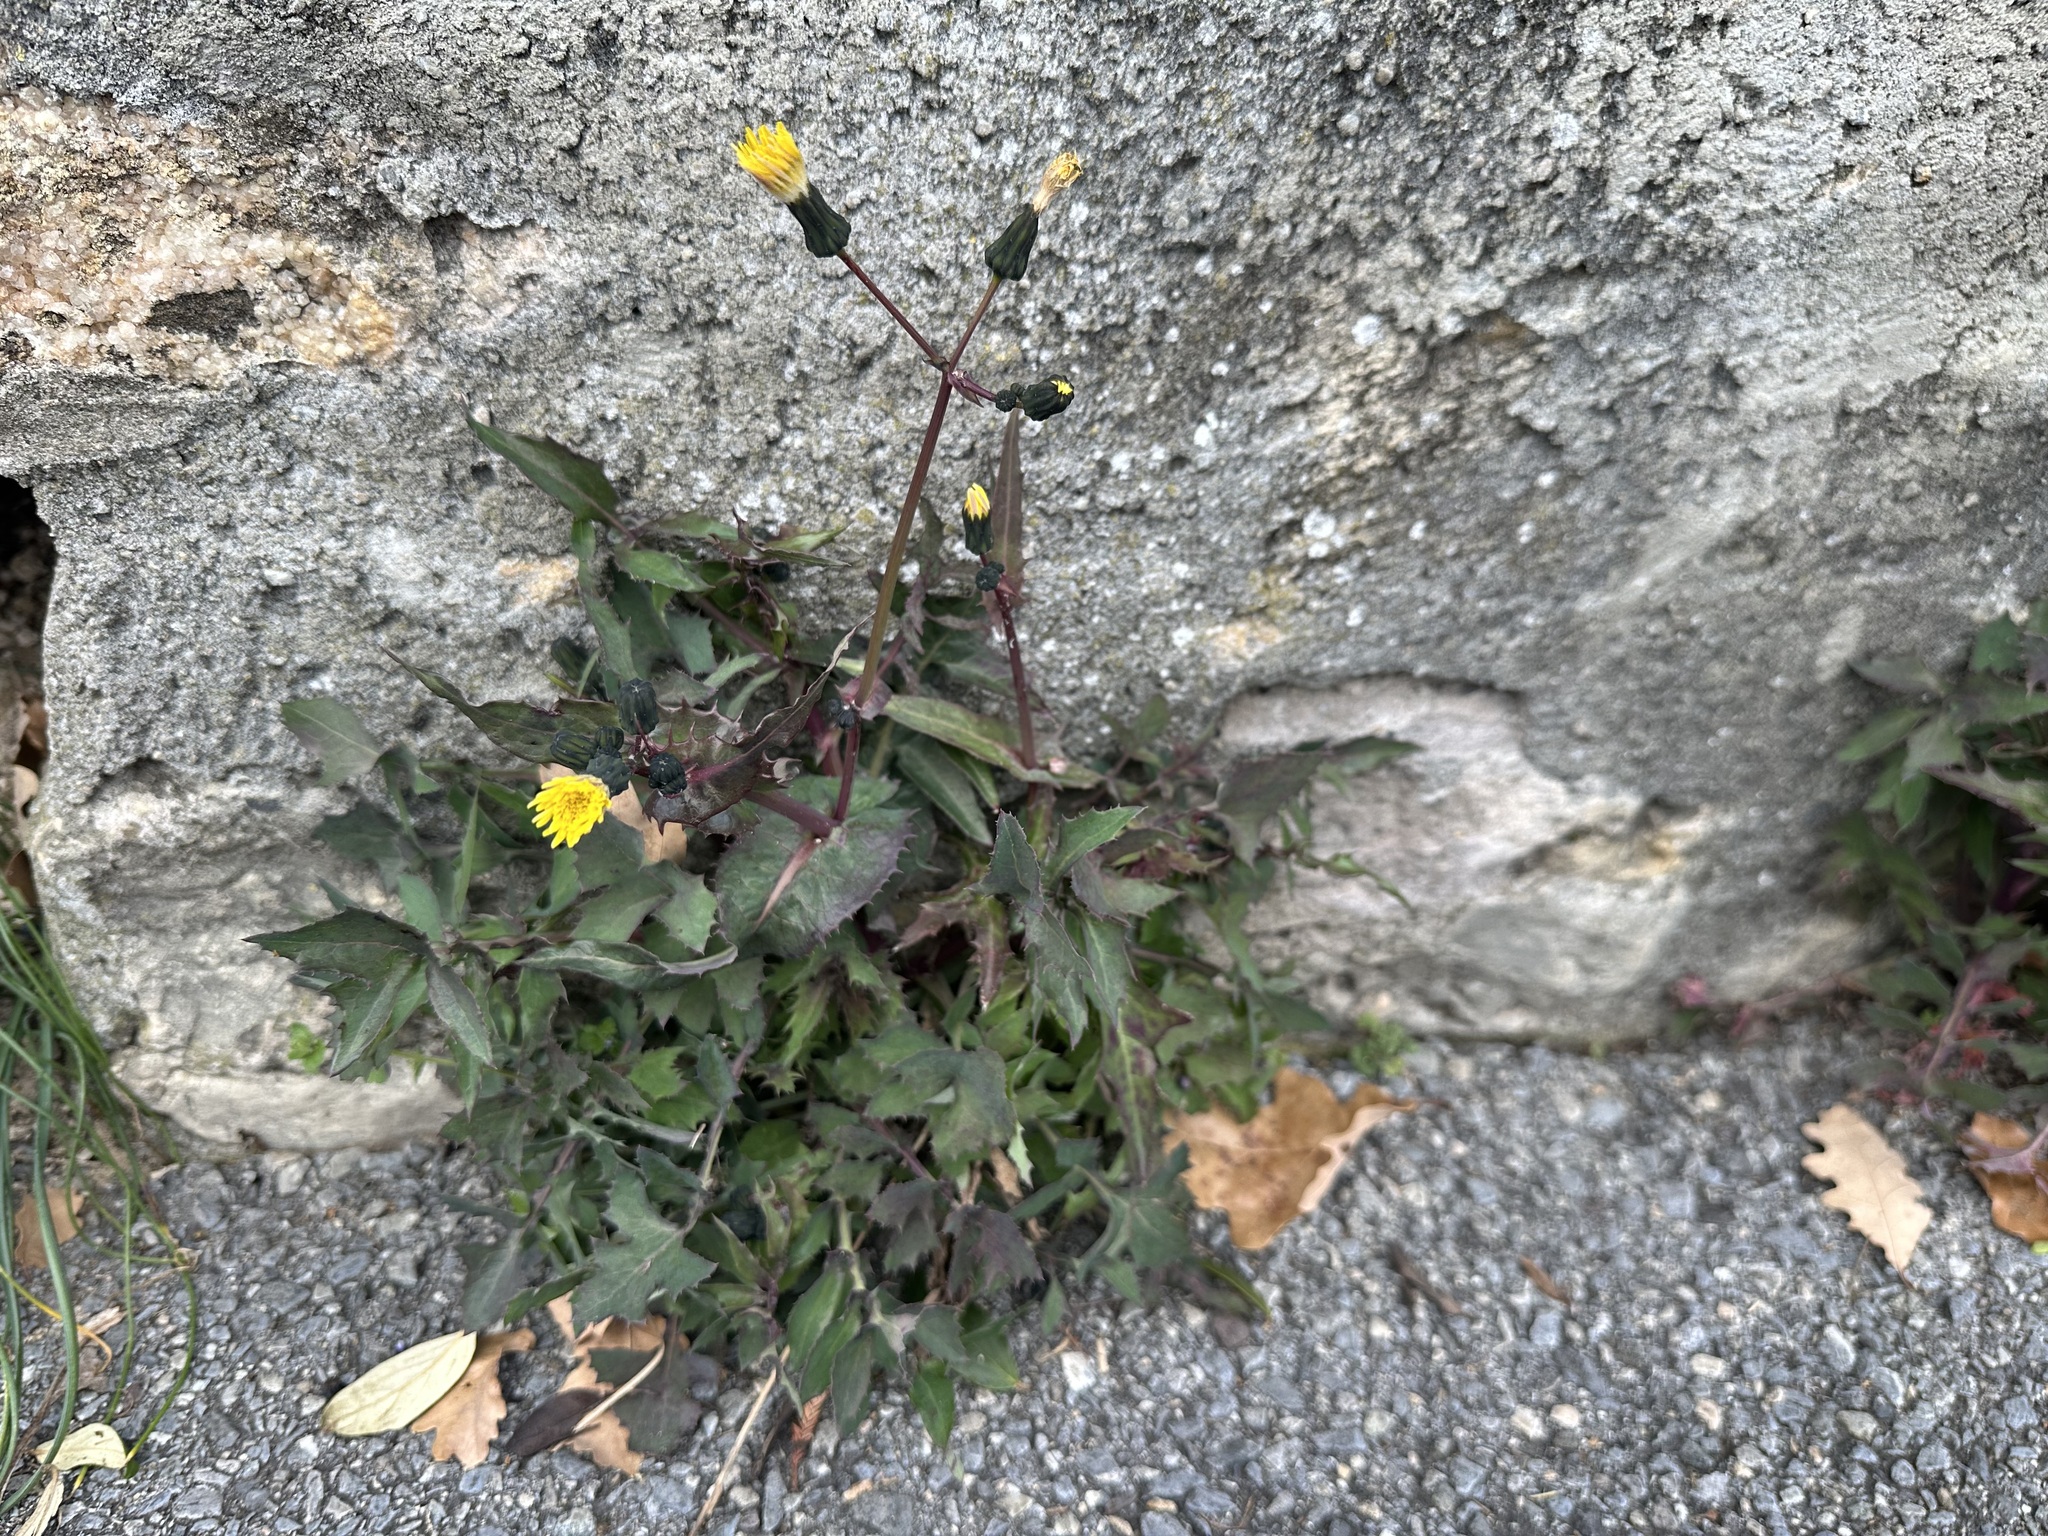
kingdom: Plantae
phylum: Tracheophyta
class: Magnoliopsida
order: Asterales
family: Asteraceae
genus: Sonchus
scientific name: Sonchus oleraceus
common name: Common sowthistle
